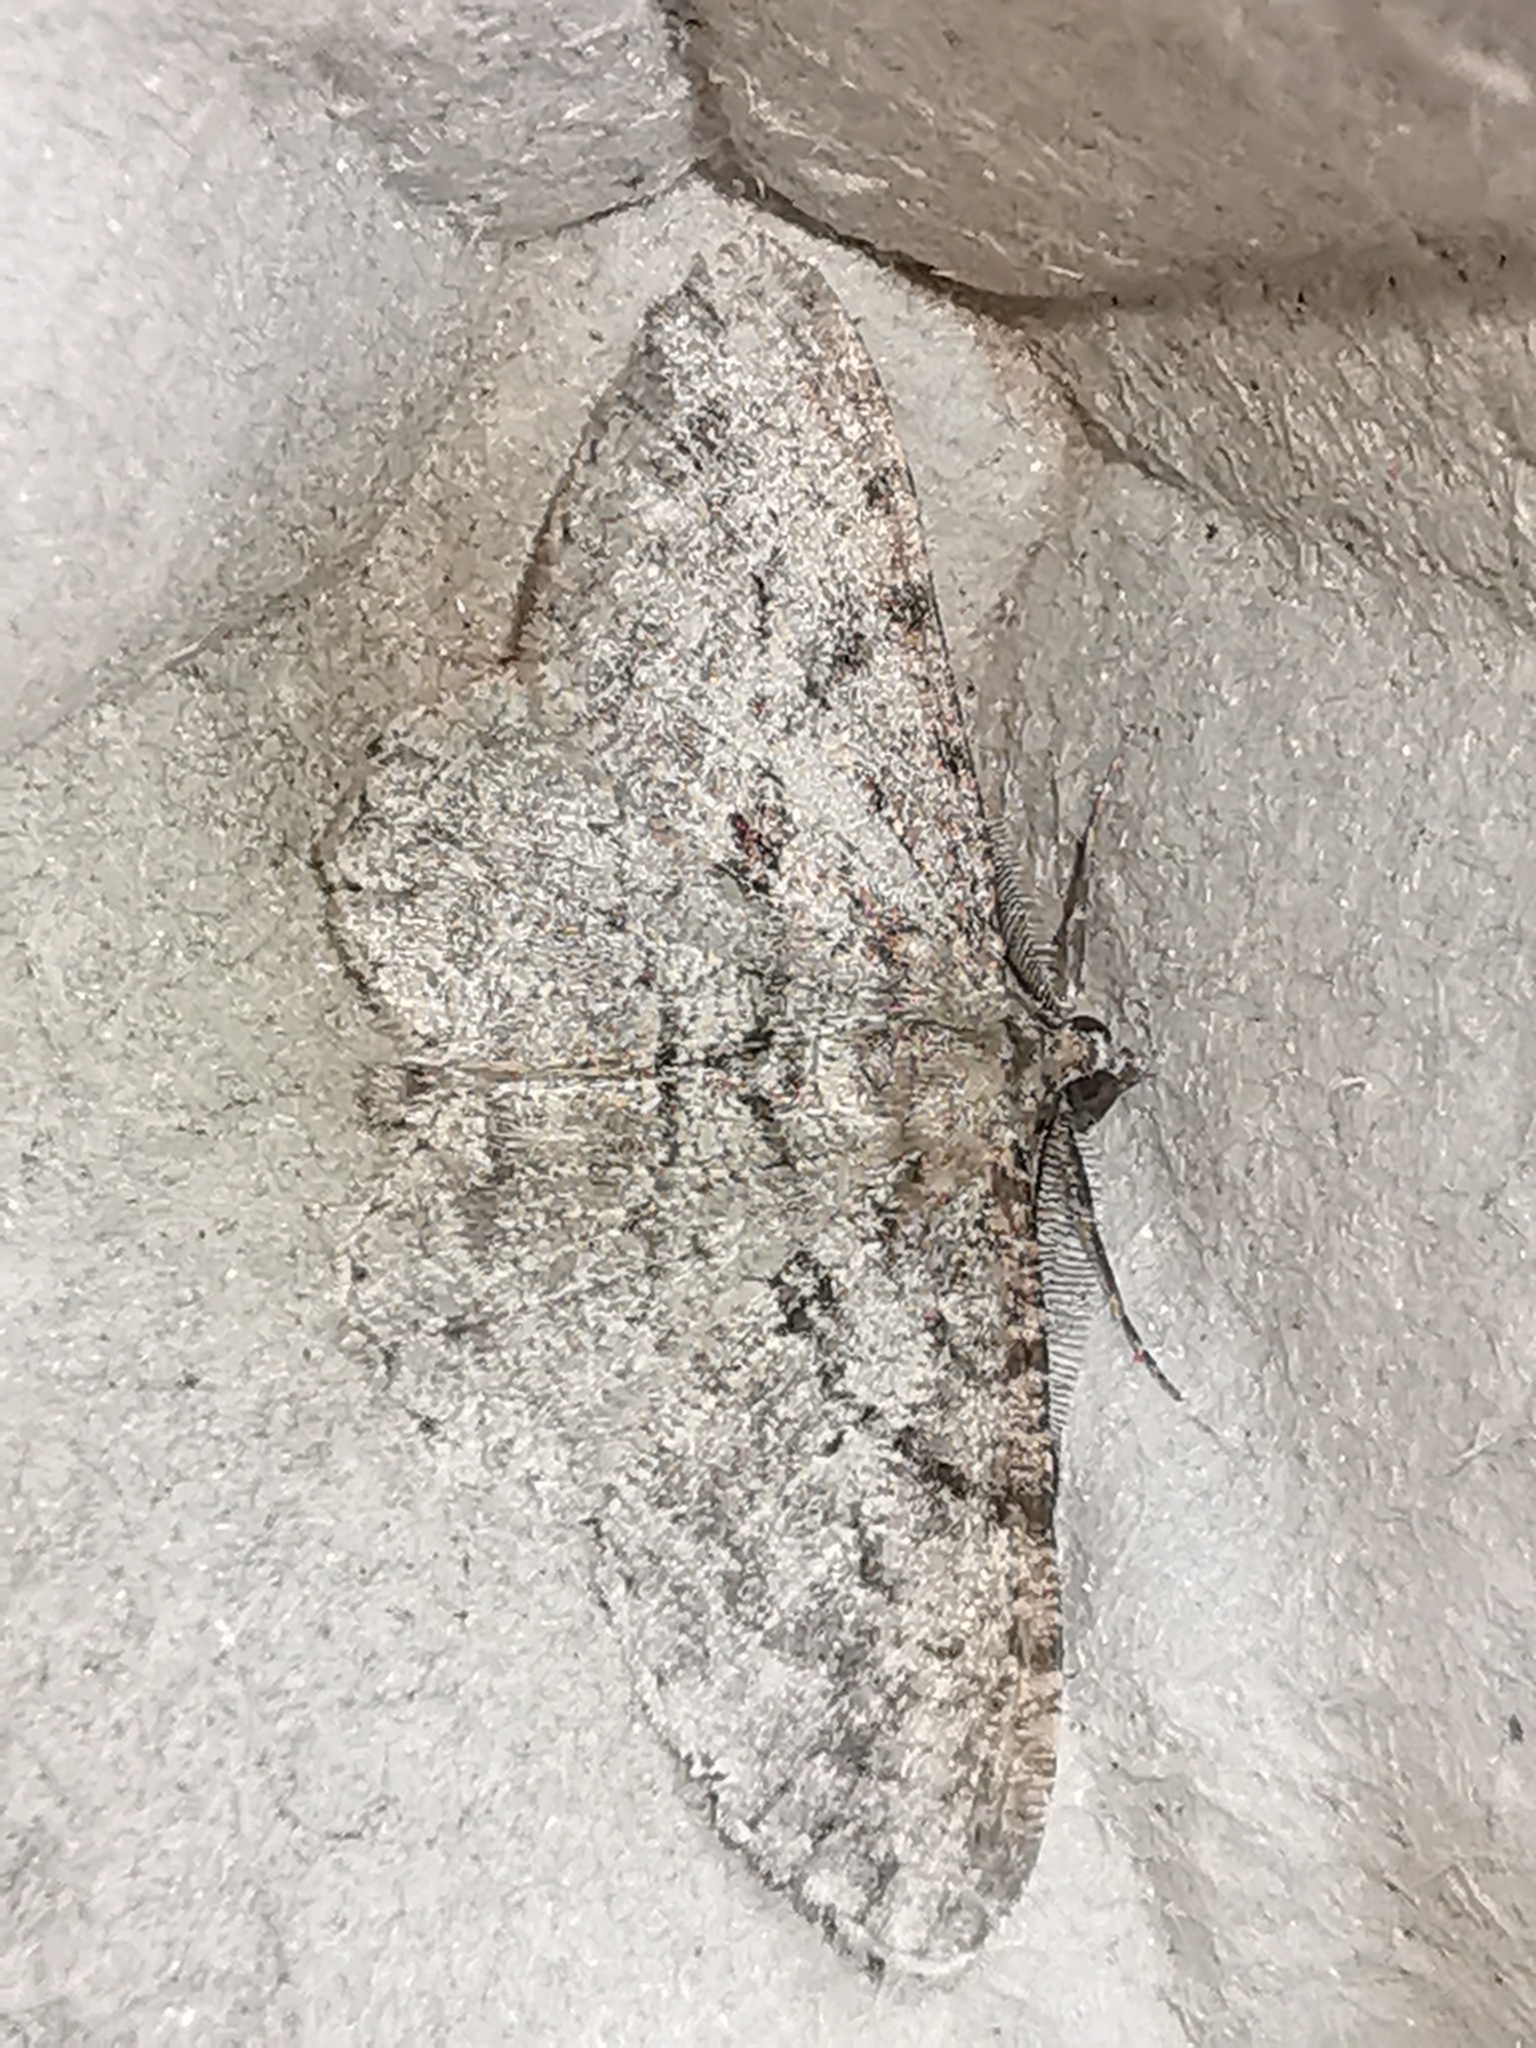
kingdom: Animalia
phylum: Arthropoda
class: Insecta
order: Lepidoptera
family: Geometridae
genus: Peribatodes
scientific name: Peribatodes rhomboidaria
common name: Willow beauty
